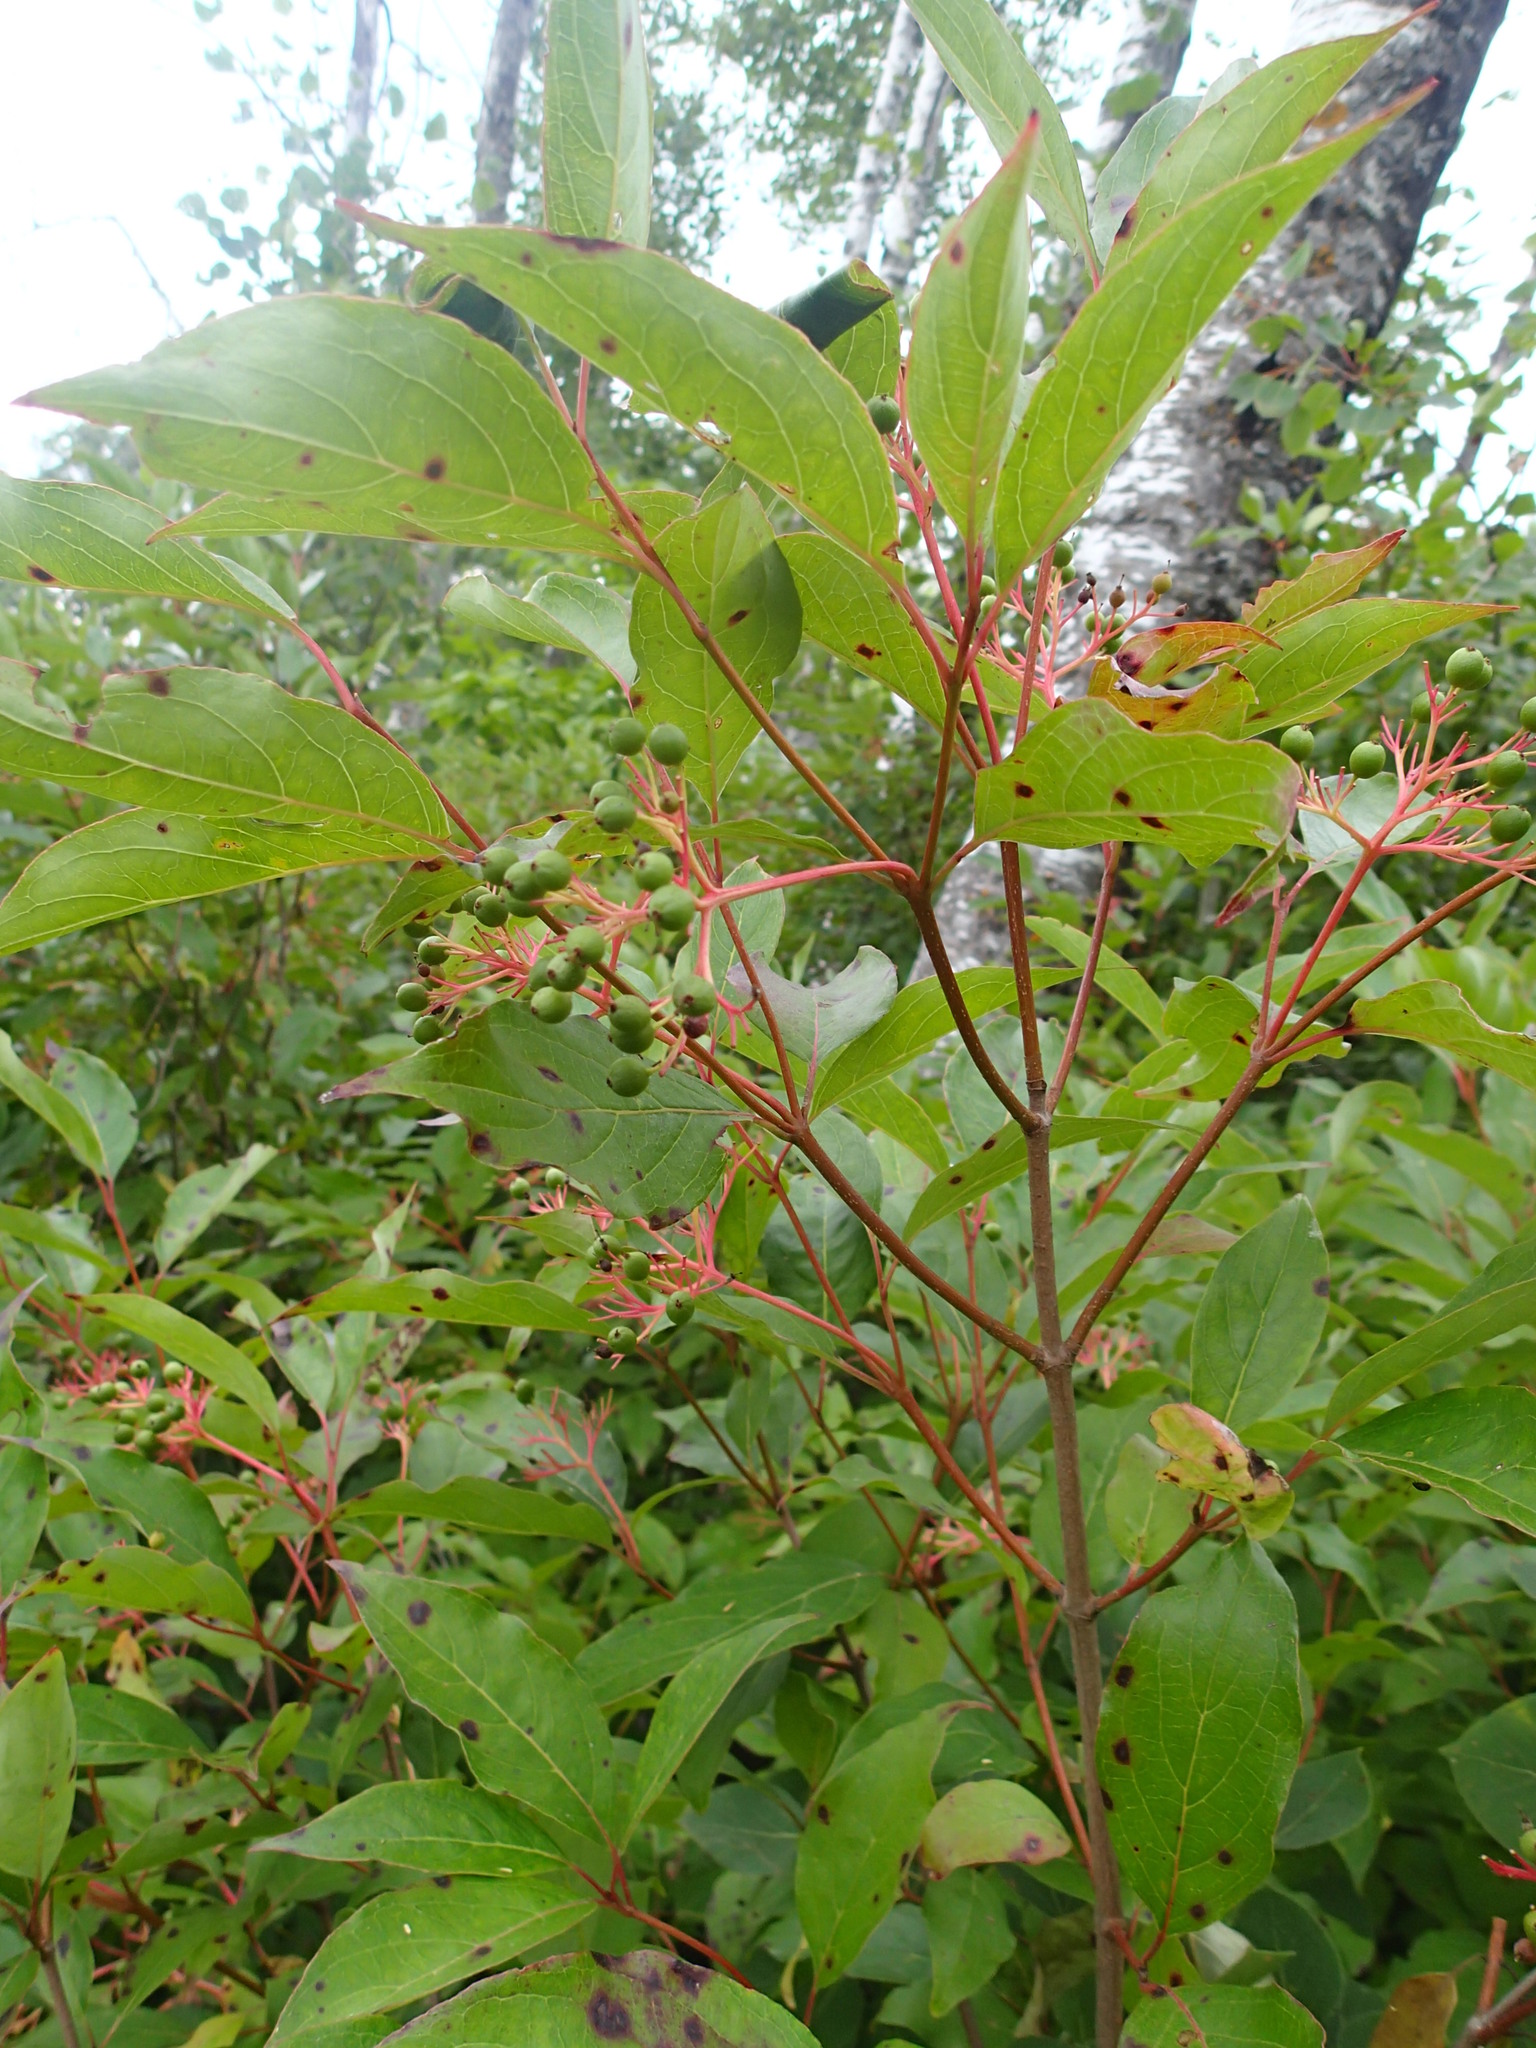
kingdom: Plantae
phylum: Tracheophyta
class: Magnoliopsida
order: Cornales
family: Cornaceae
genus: Cornus
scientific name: Cornus racemosa
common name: Panicled dogwood
